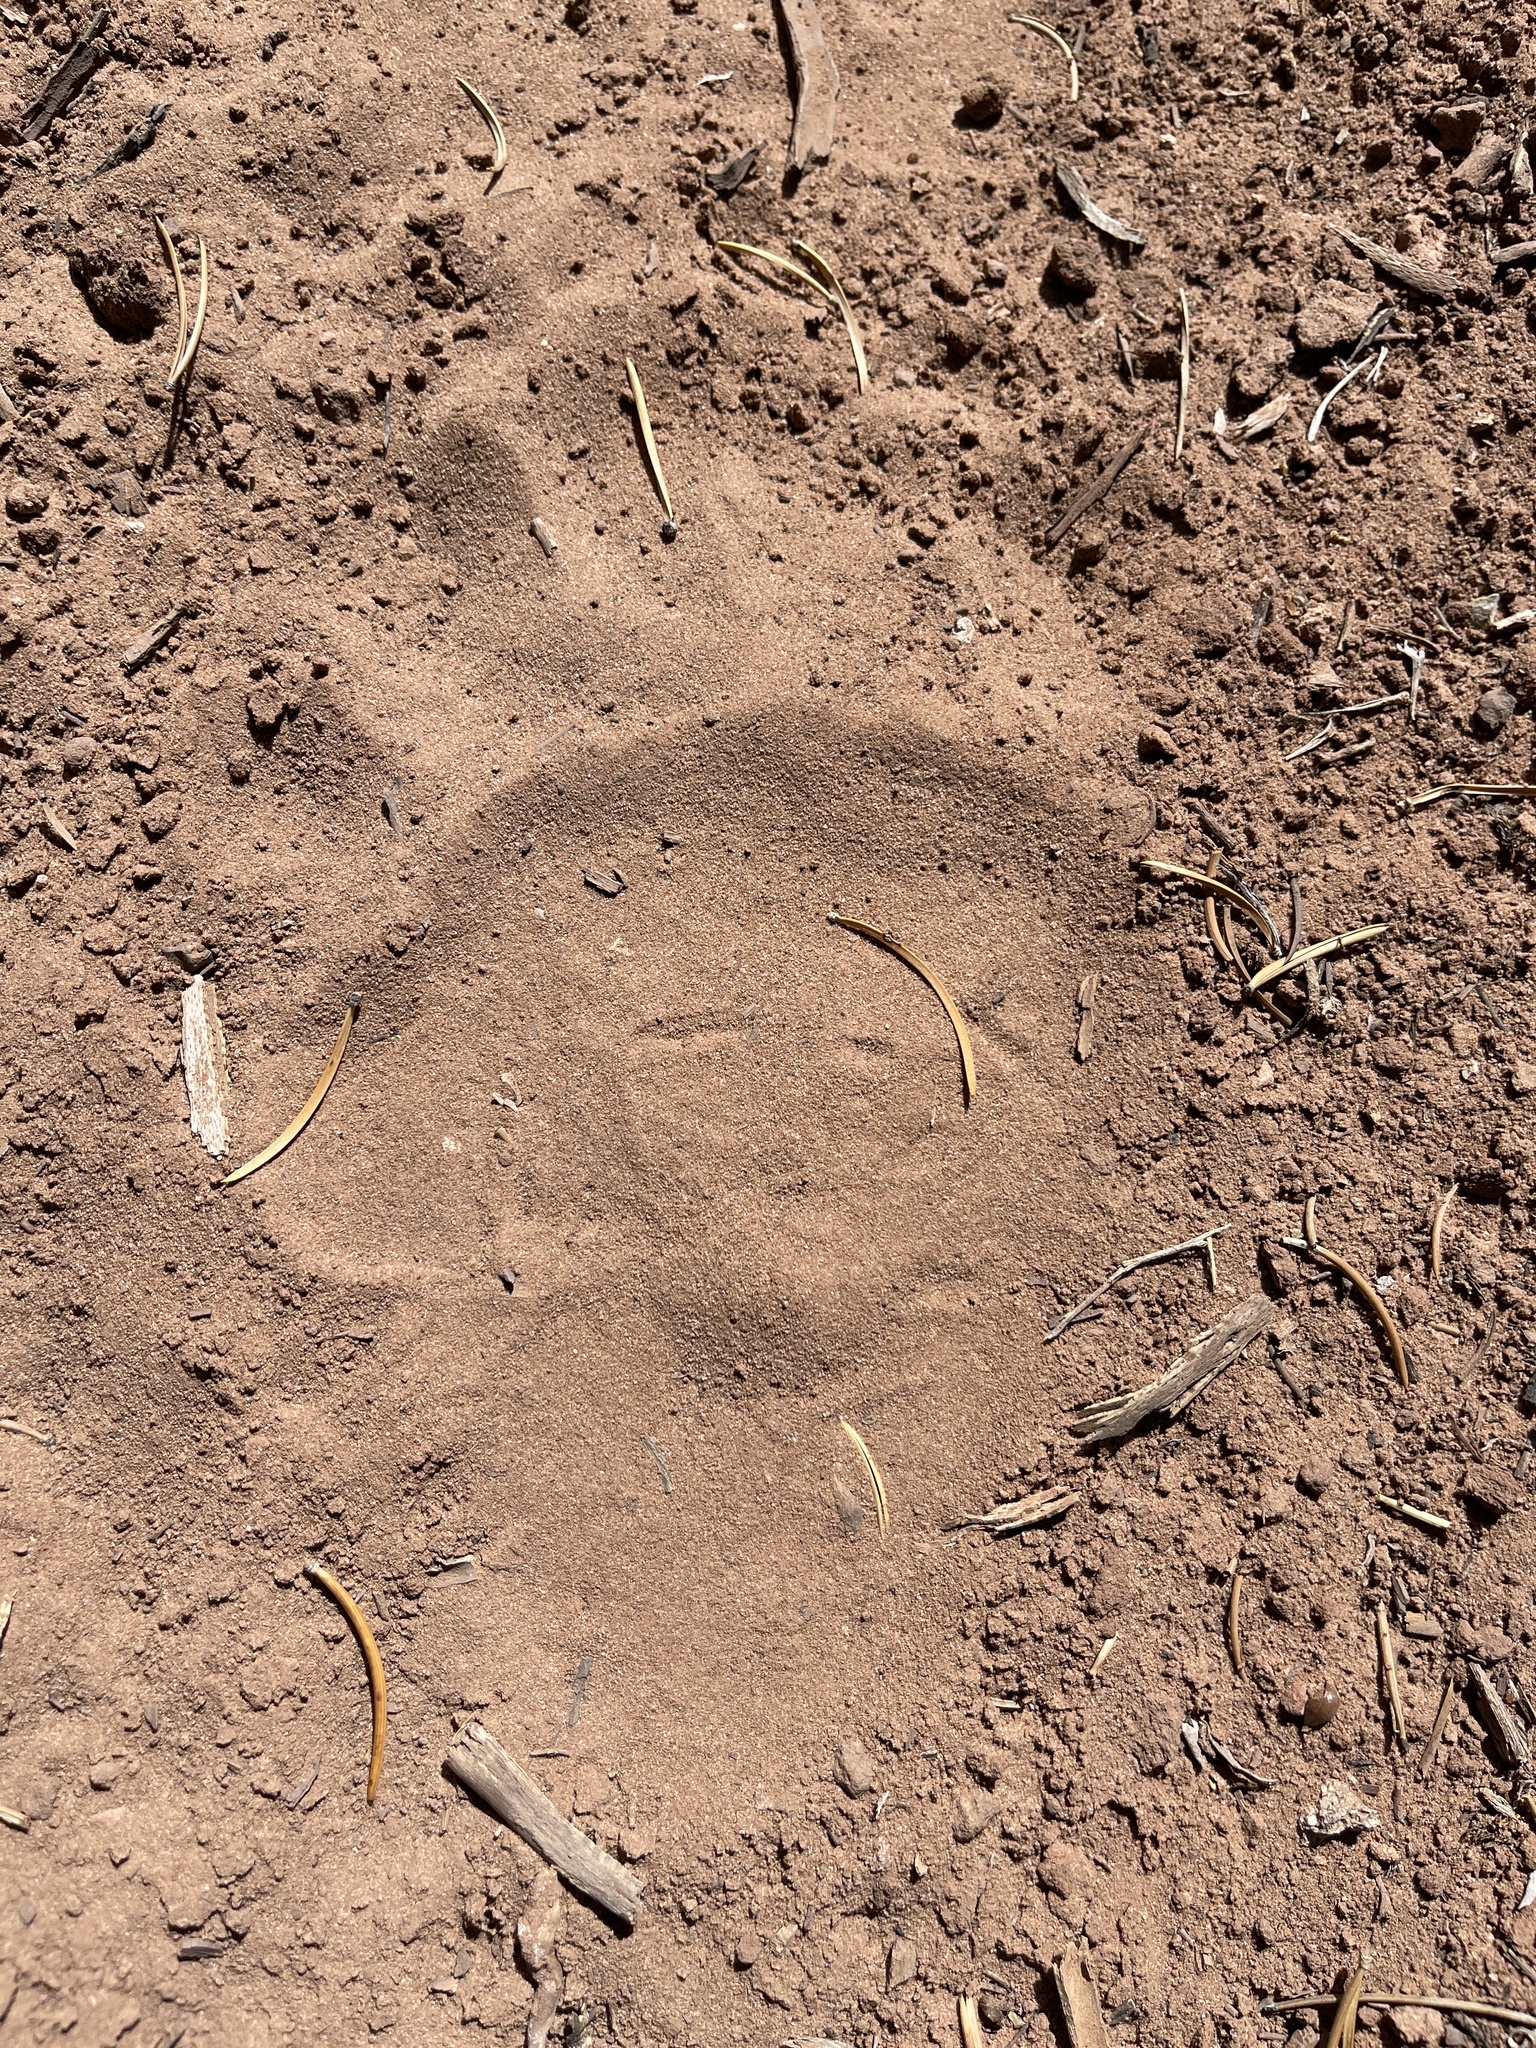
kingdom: Animalia
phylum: Chordata
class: Mammalia
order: Carnivora
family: Ursidae
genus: Ursus
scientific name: Ursus americanus
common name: American black bear
